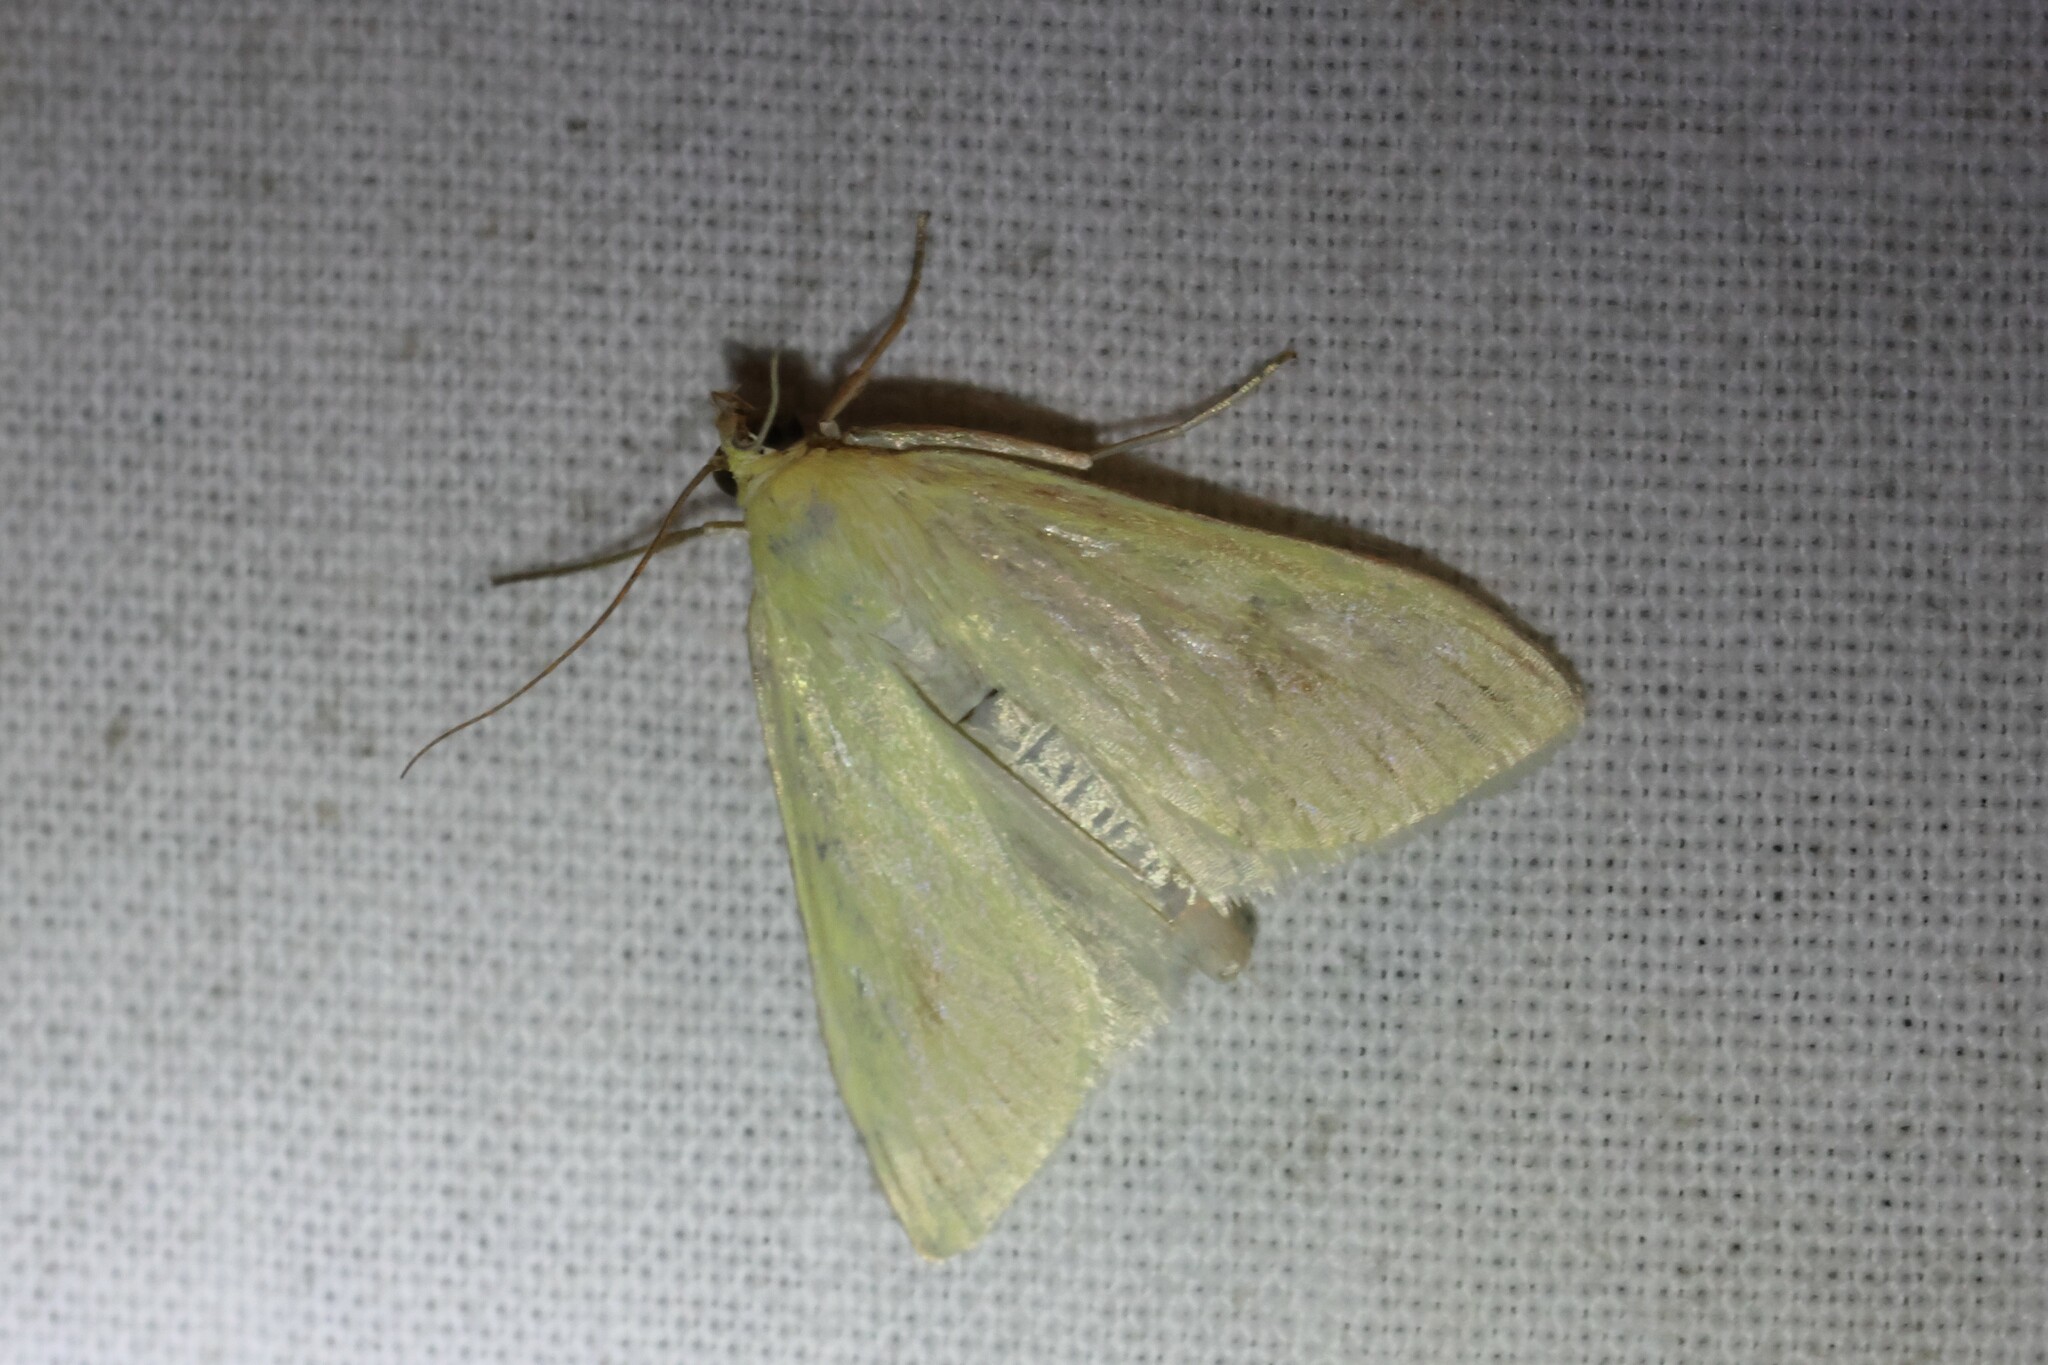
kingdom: Animalia
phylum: Arthropoda
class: Insecta
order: Lepidoptera
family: Crambidae
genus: Sitochroa
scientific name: Sitochroa palealis
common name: Greenish-yellow sitochroa moth
